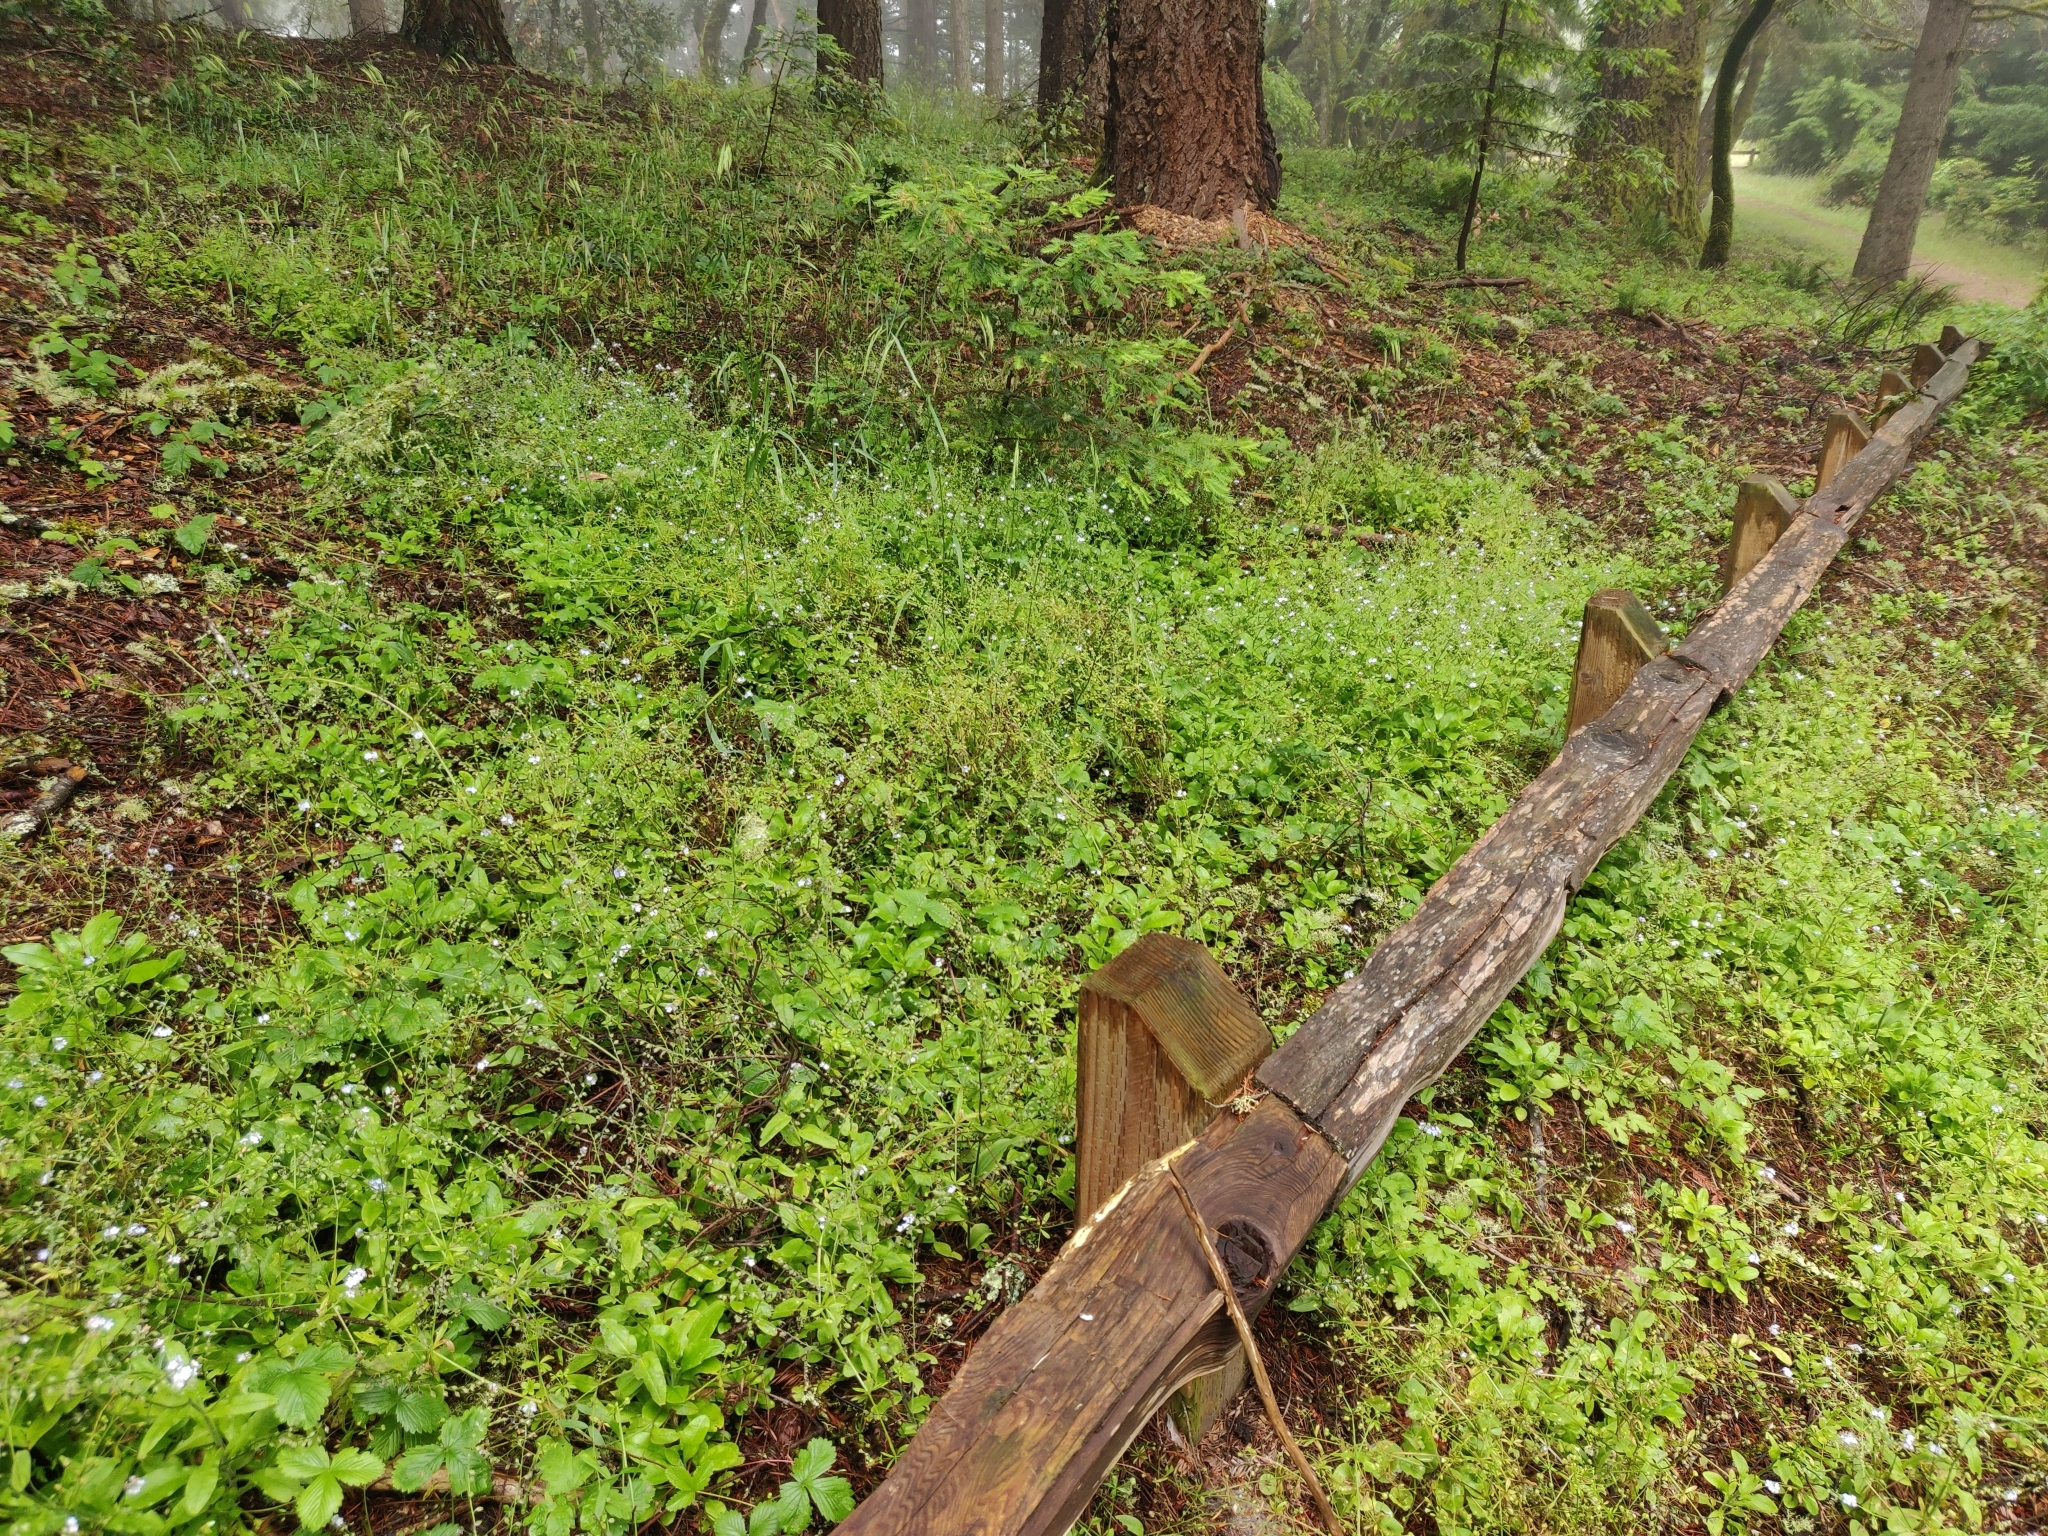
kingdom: Plantae
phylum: Tracheophyta
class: Magnoliopsida
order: Boraginales
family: Boraginaceae
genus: Myosotis
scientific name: Myosotis latifolia
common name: Broadleaf forget-me-not
